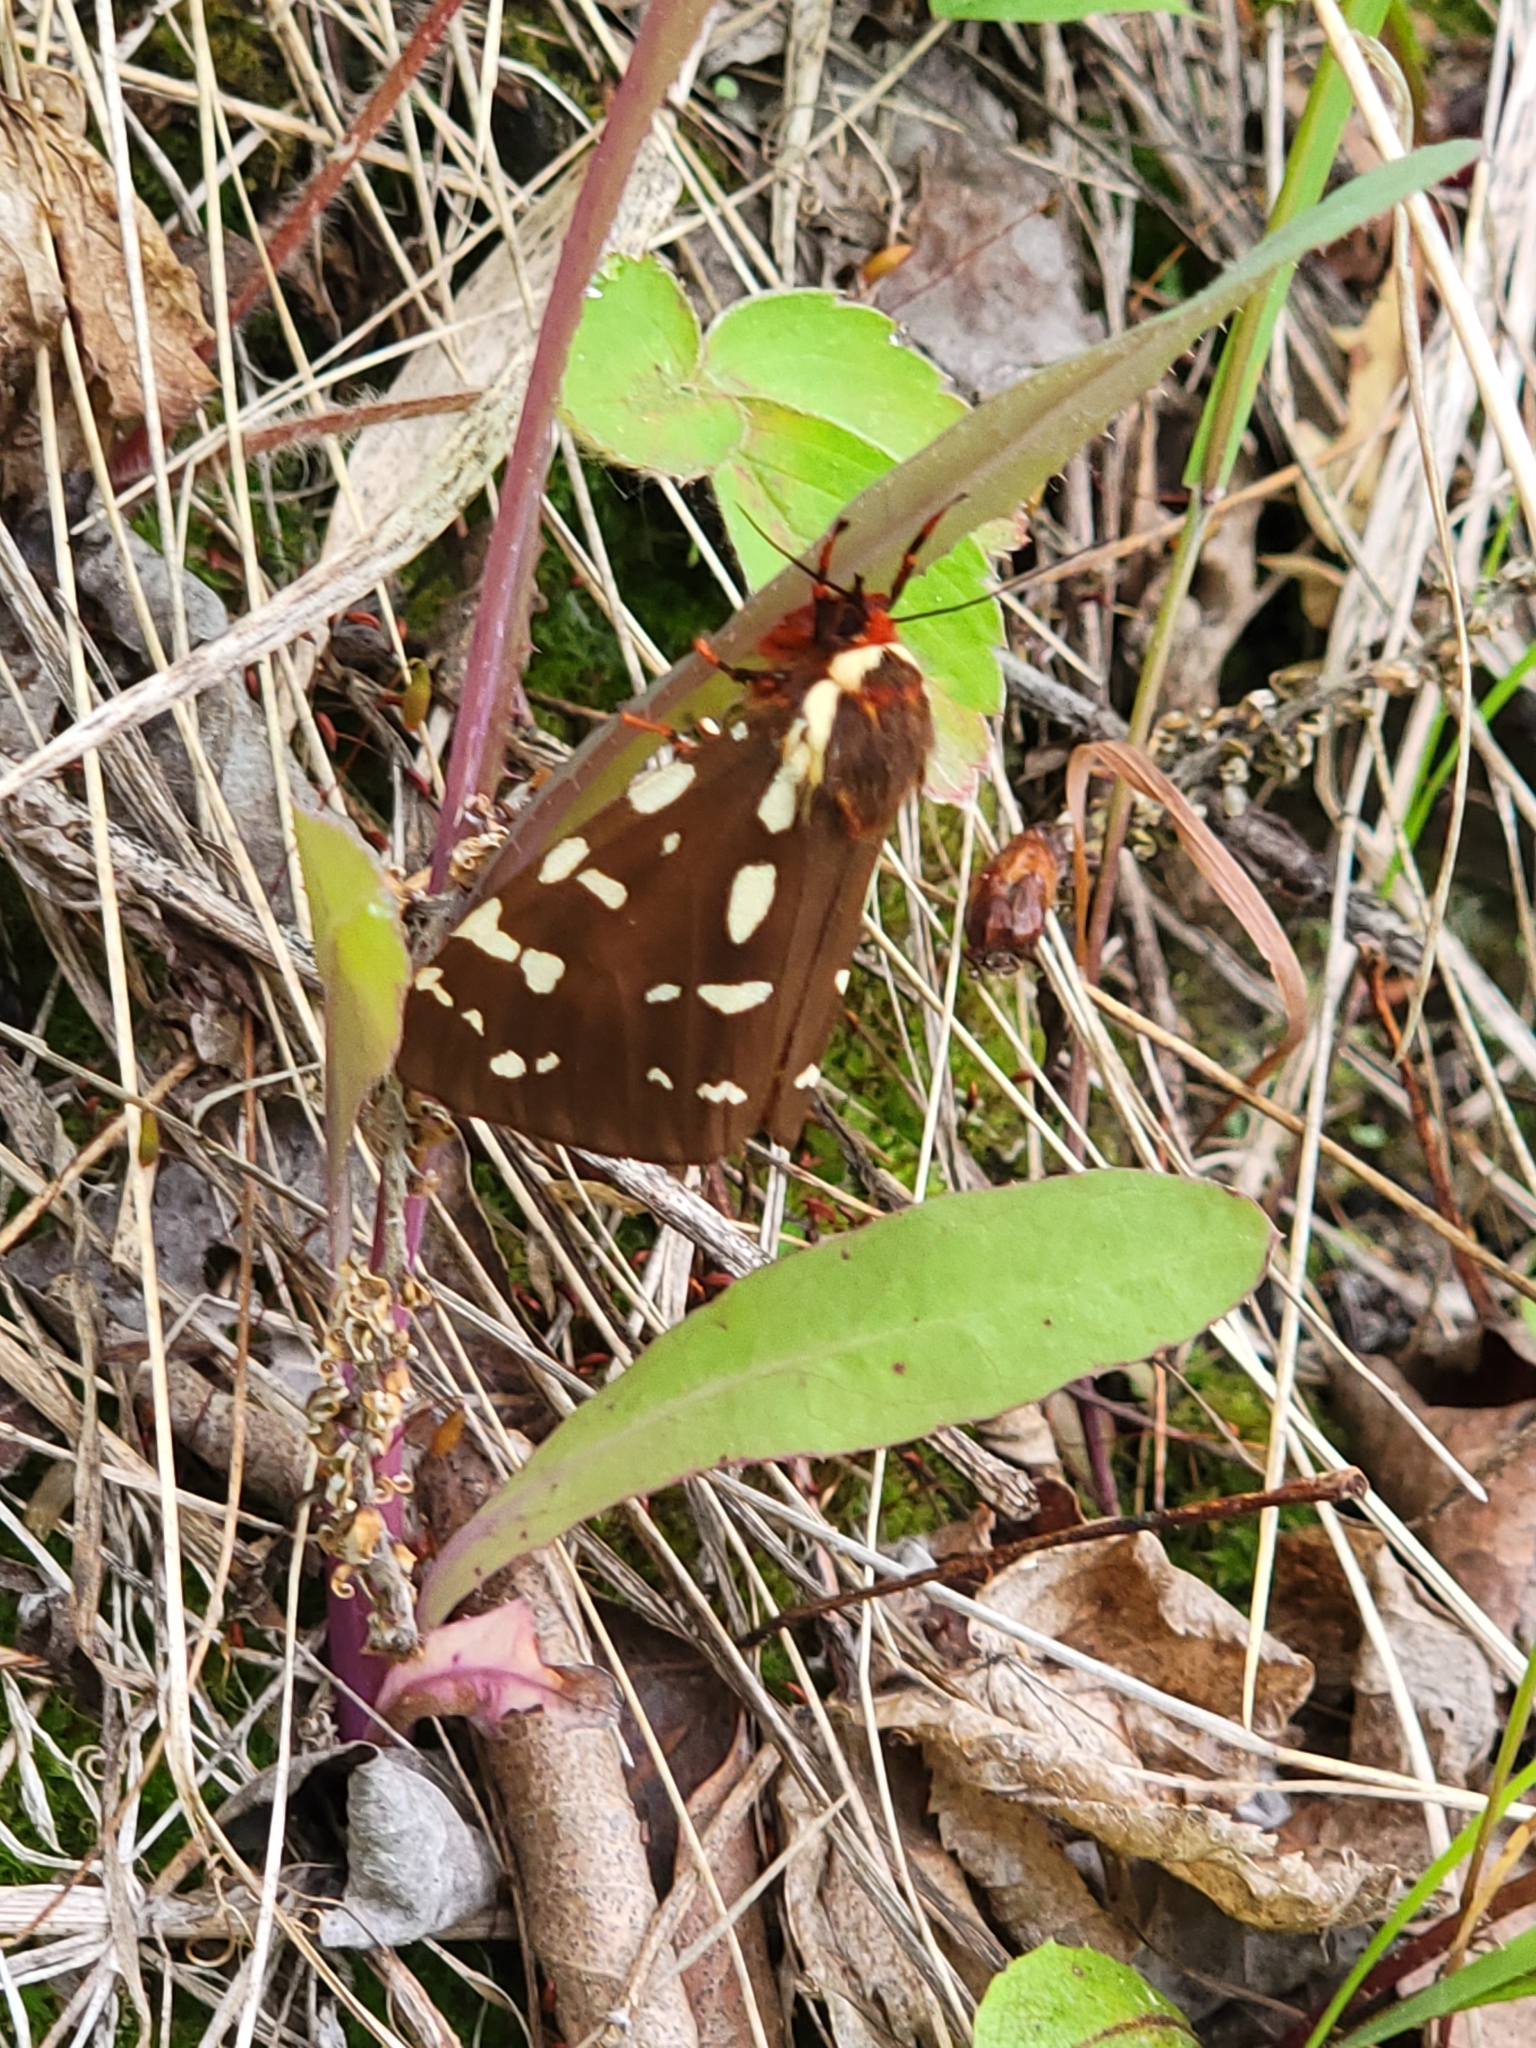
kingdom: Animalia
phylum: Arthropoda
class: Insecta
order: Lepidoptera
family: Erebidae
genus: Arctia
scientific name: Arctia parthenos
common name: St. lawrence tiger moth
